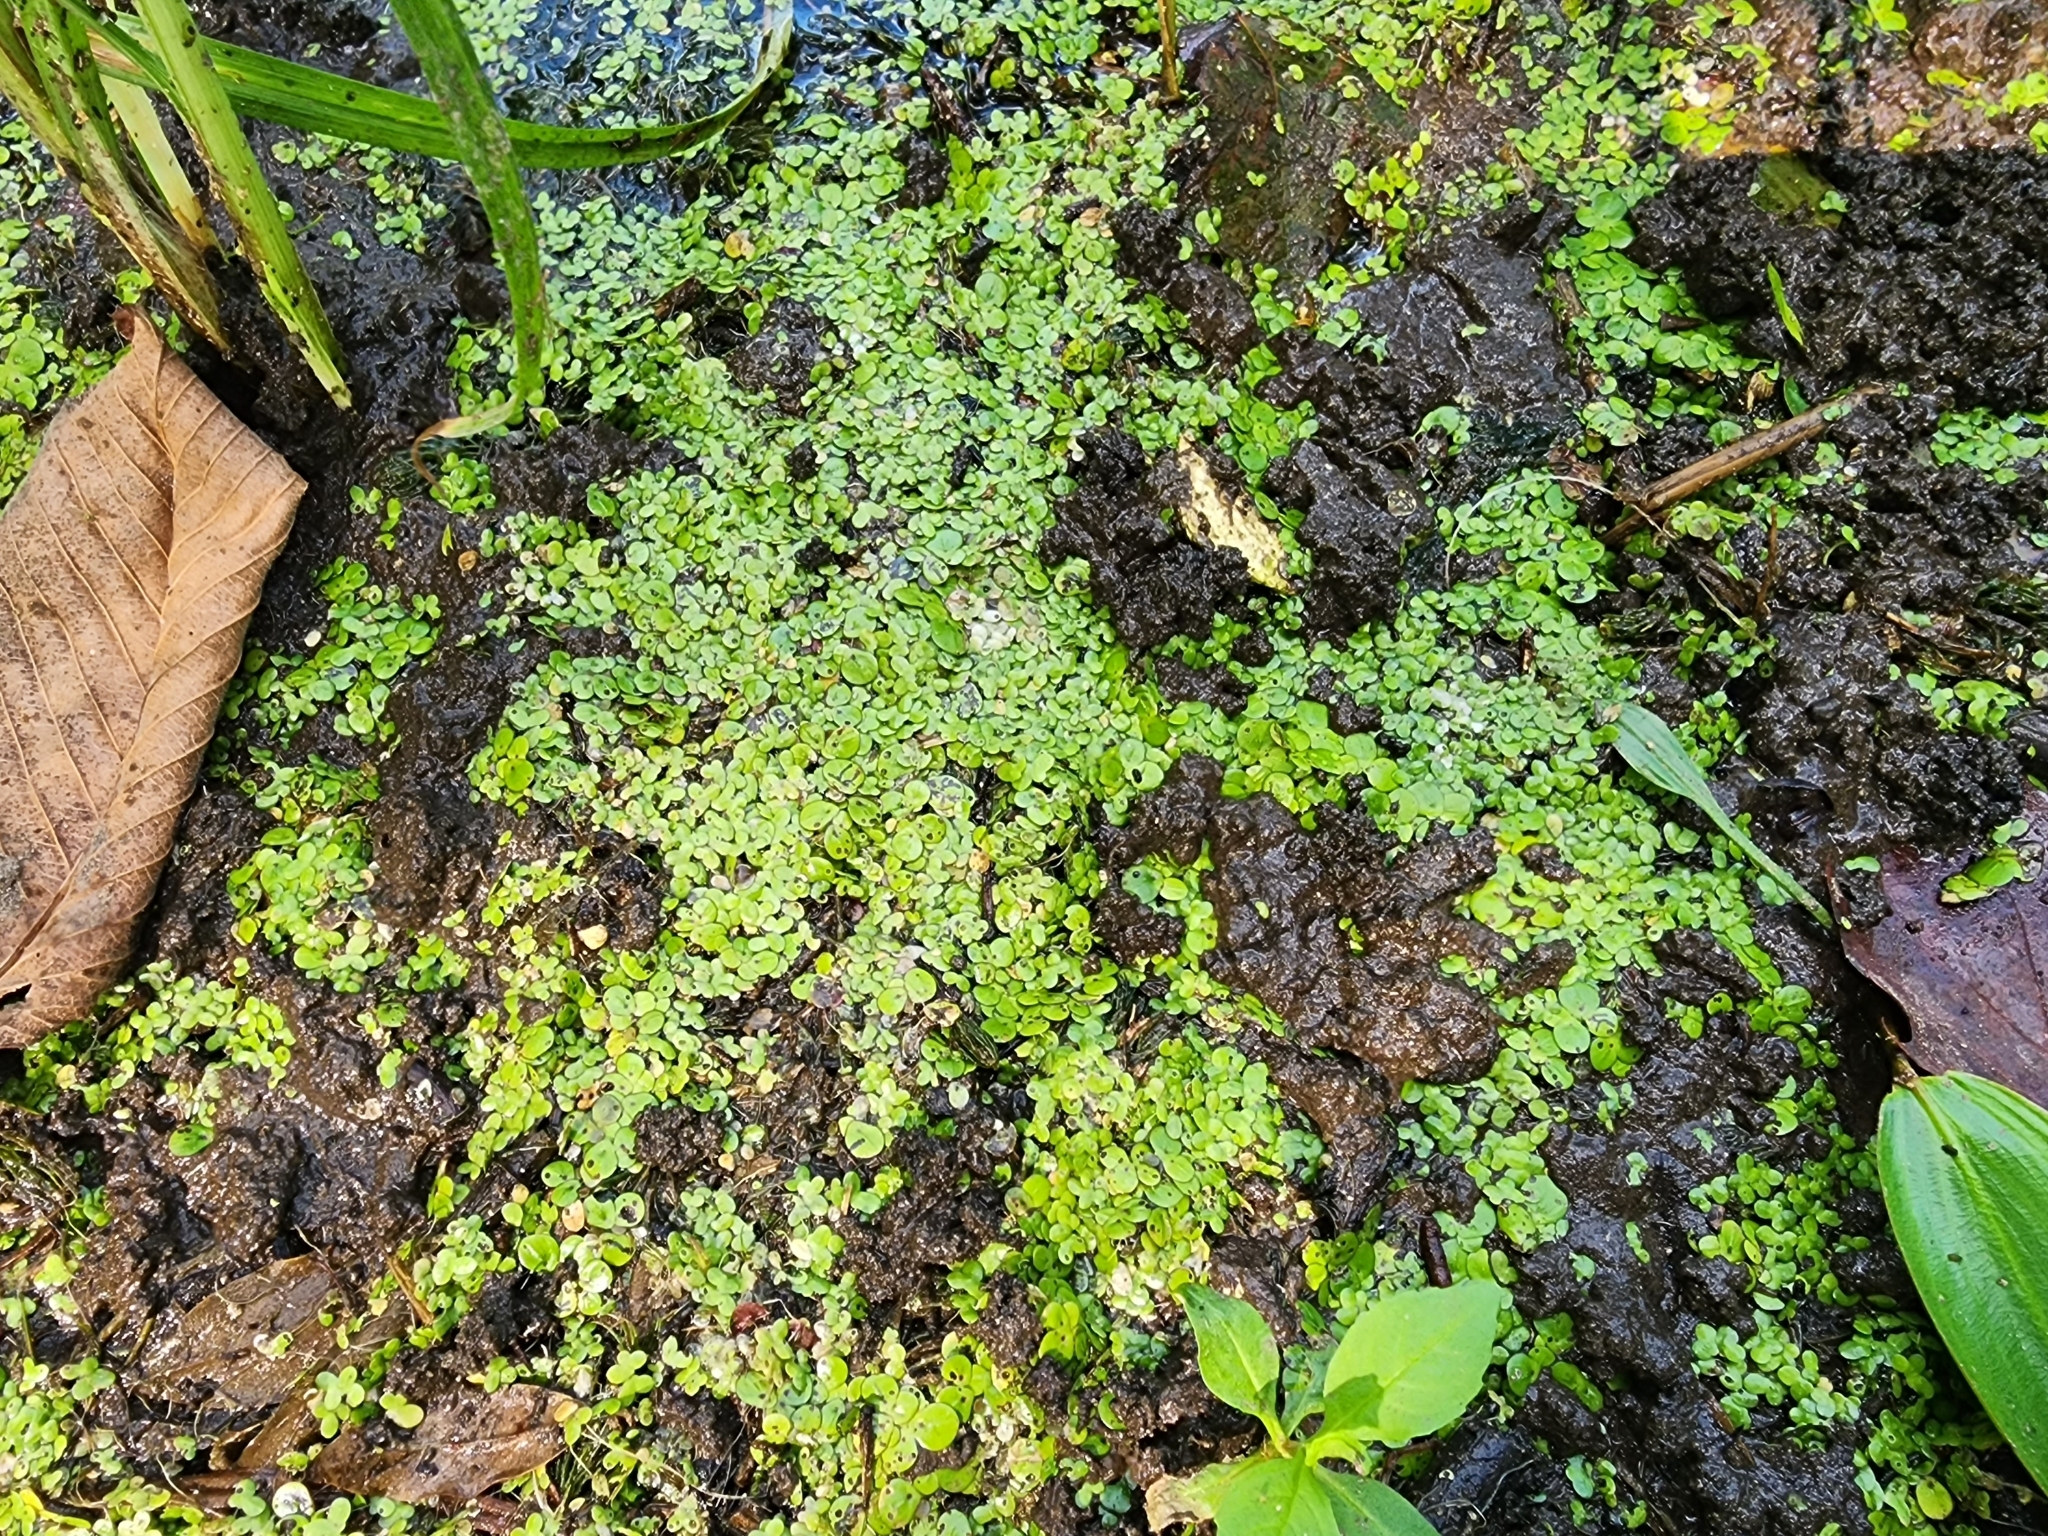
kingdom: Plantae
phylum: Tracheophyta
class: Liliopsida
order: Alismatales
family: Araceae
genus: Spirodela
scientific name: Spirodela polyrhiza
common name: Great duckweed
